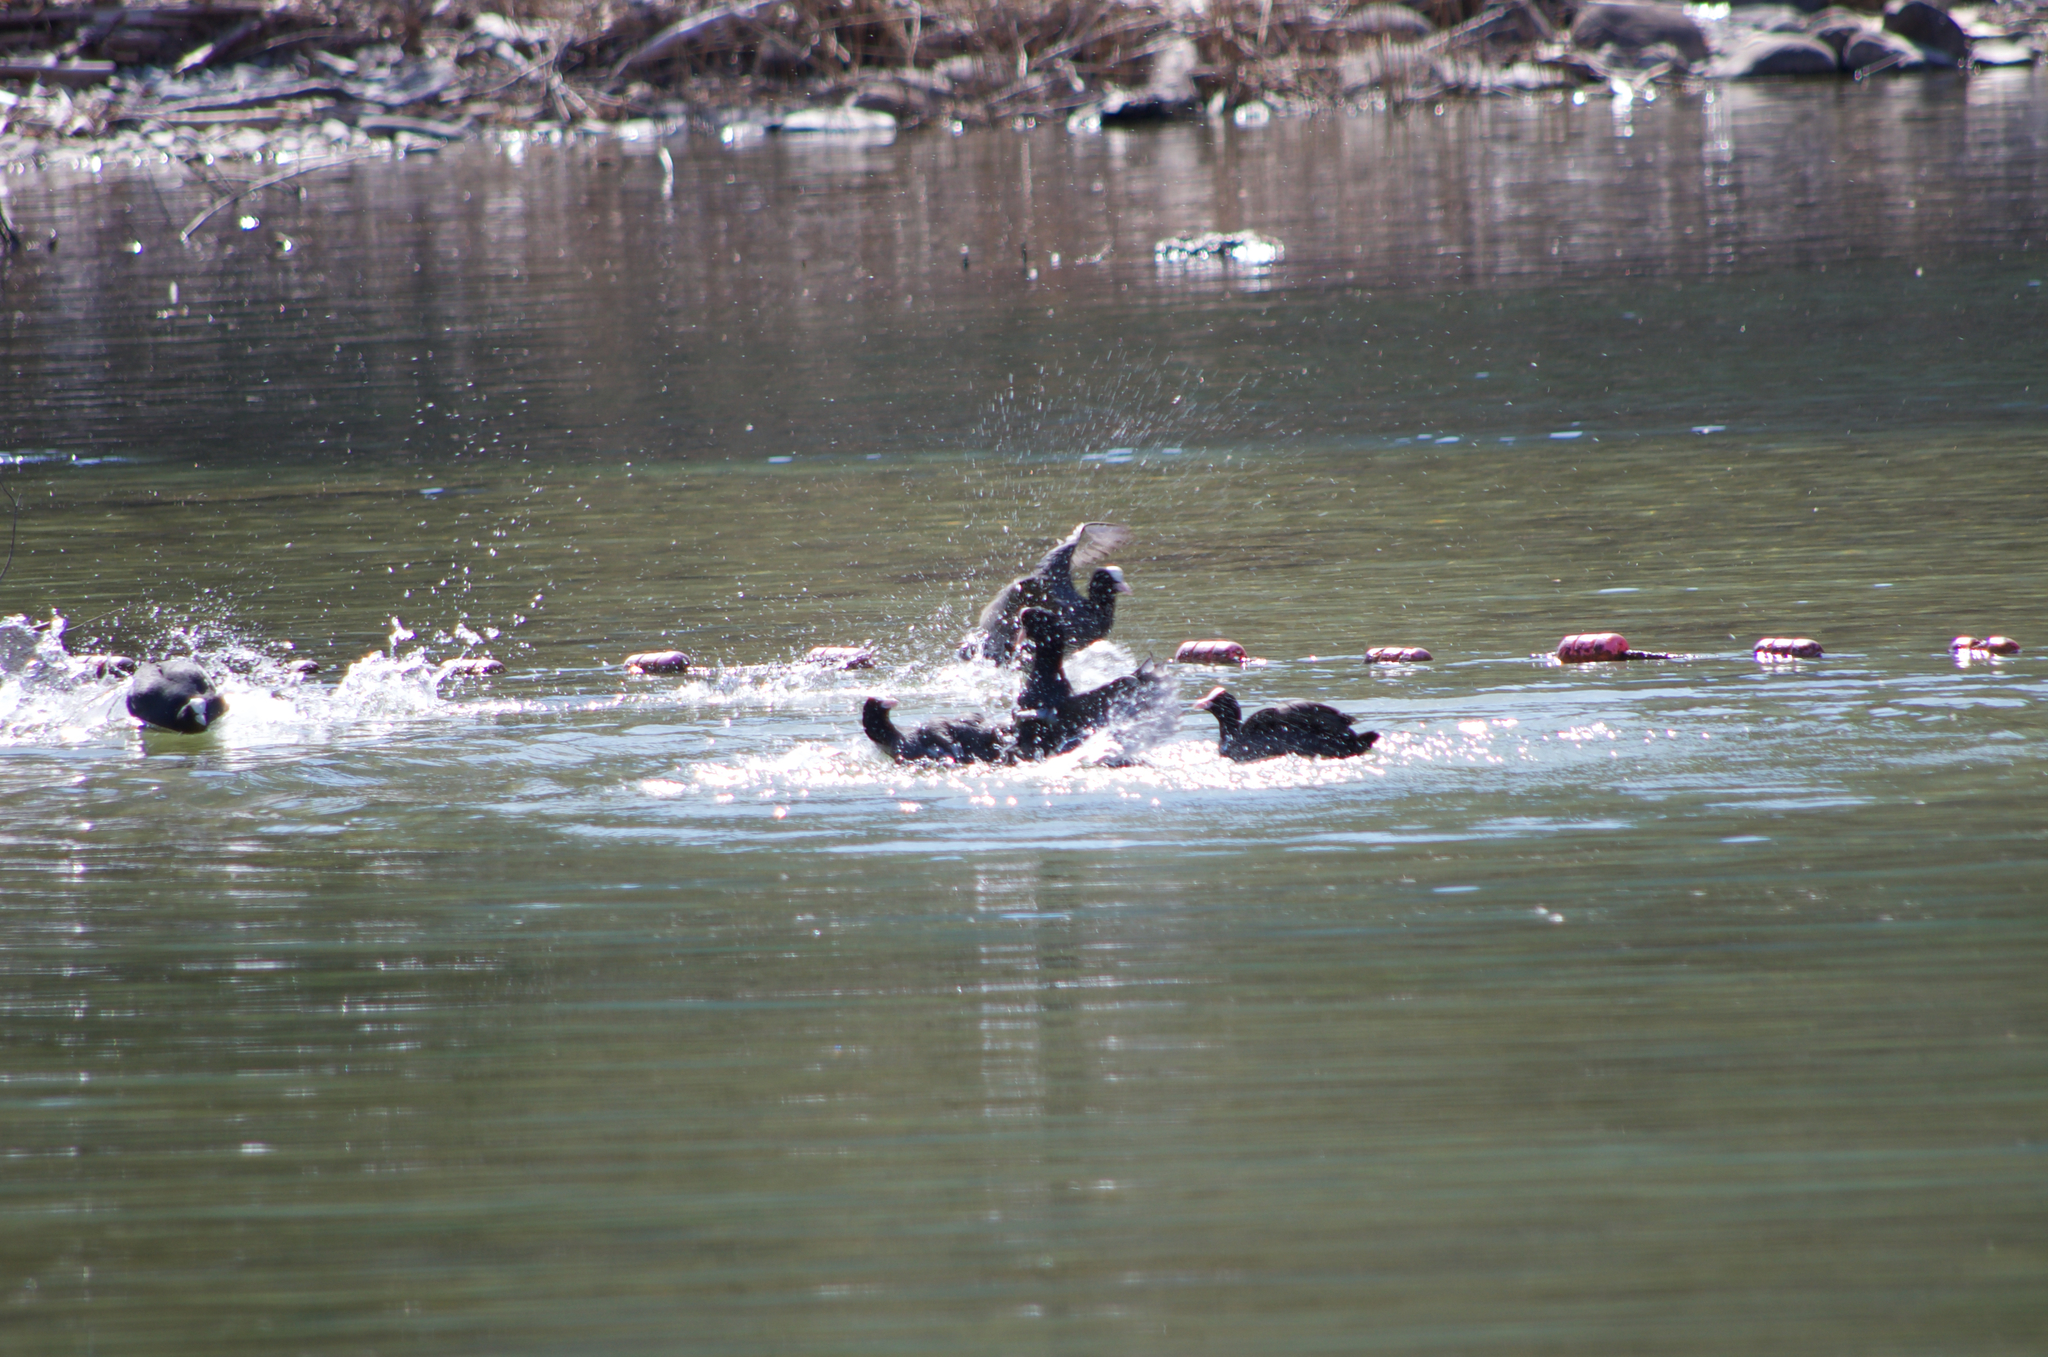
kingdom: Animalia
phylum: Chordata
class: Aves
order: Gruiformes
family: Rallidae
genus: Fulica
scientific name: Fulica atra
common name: Eurasian coot
